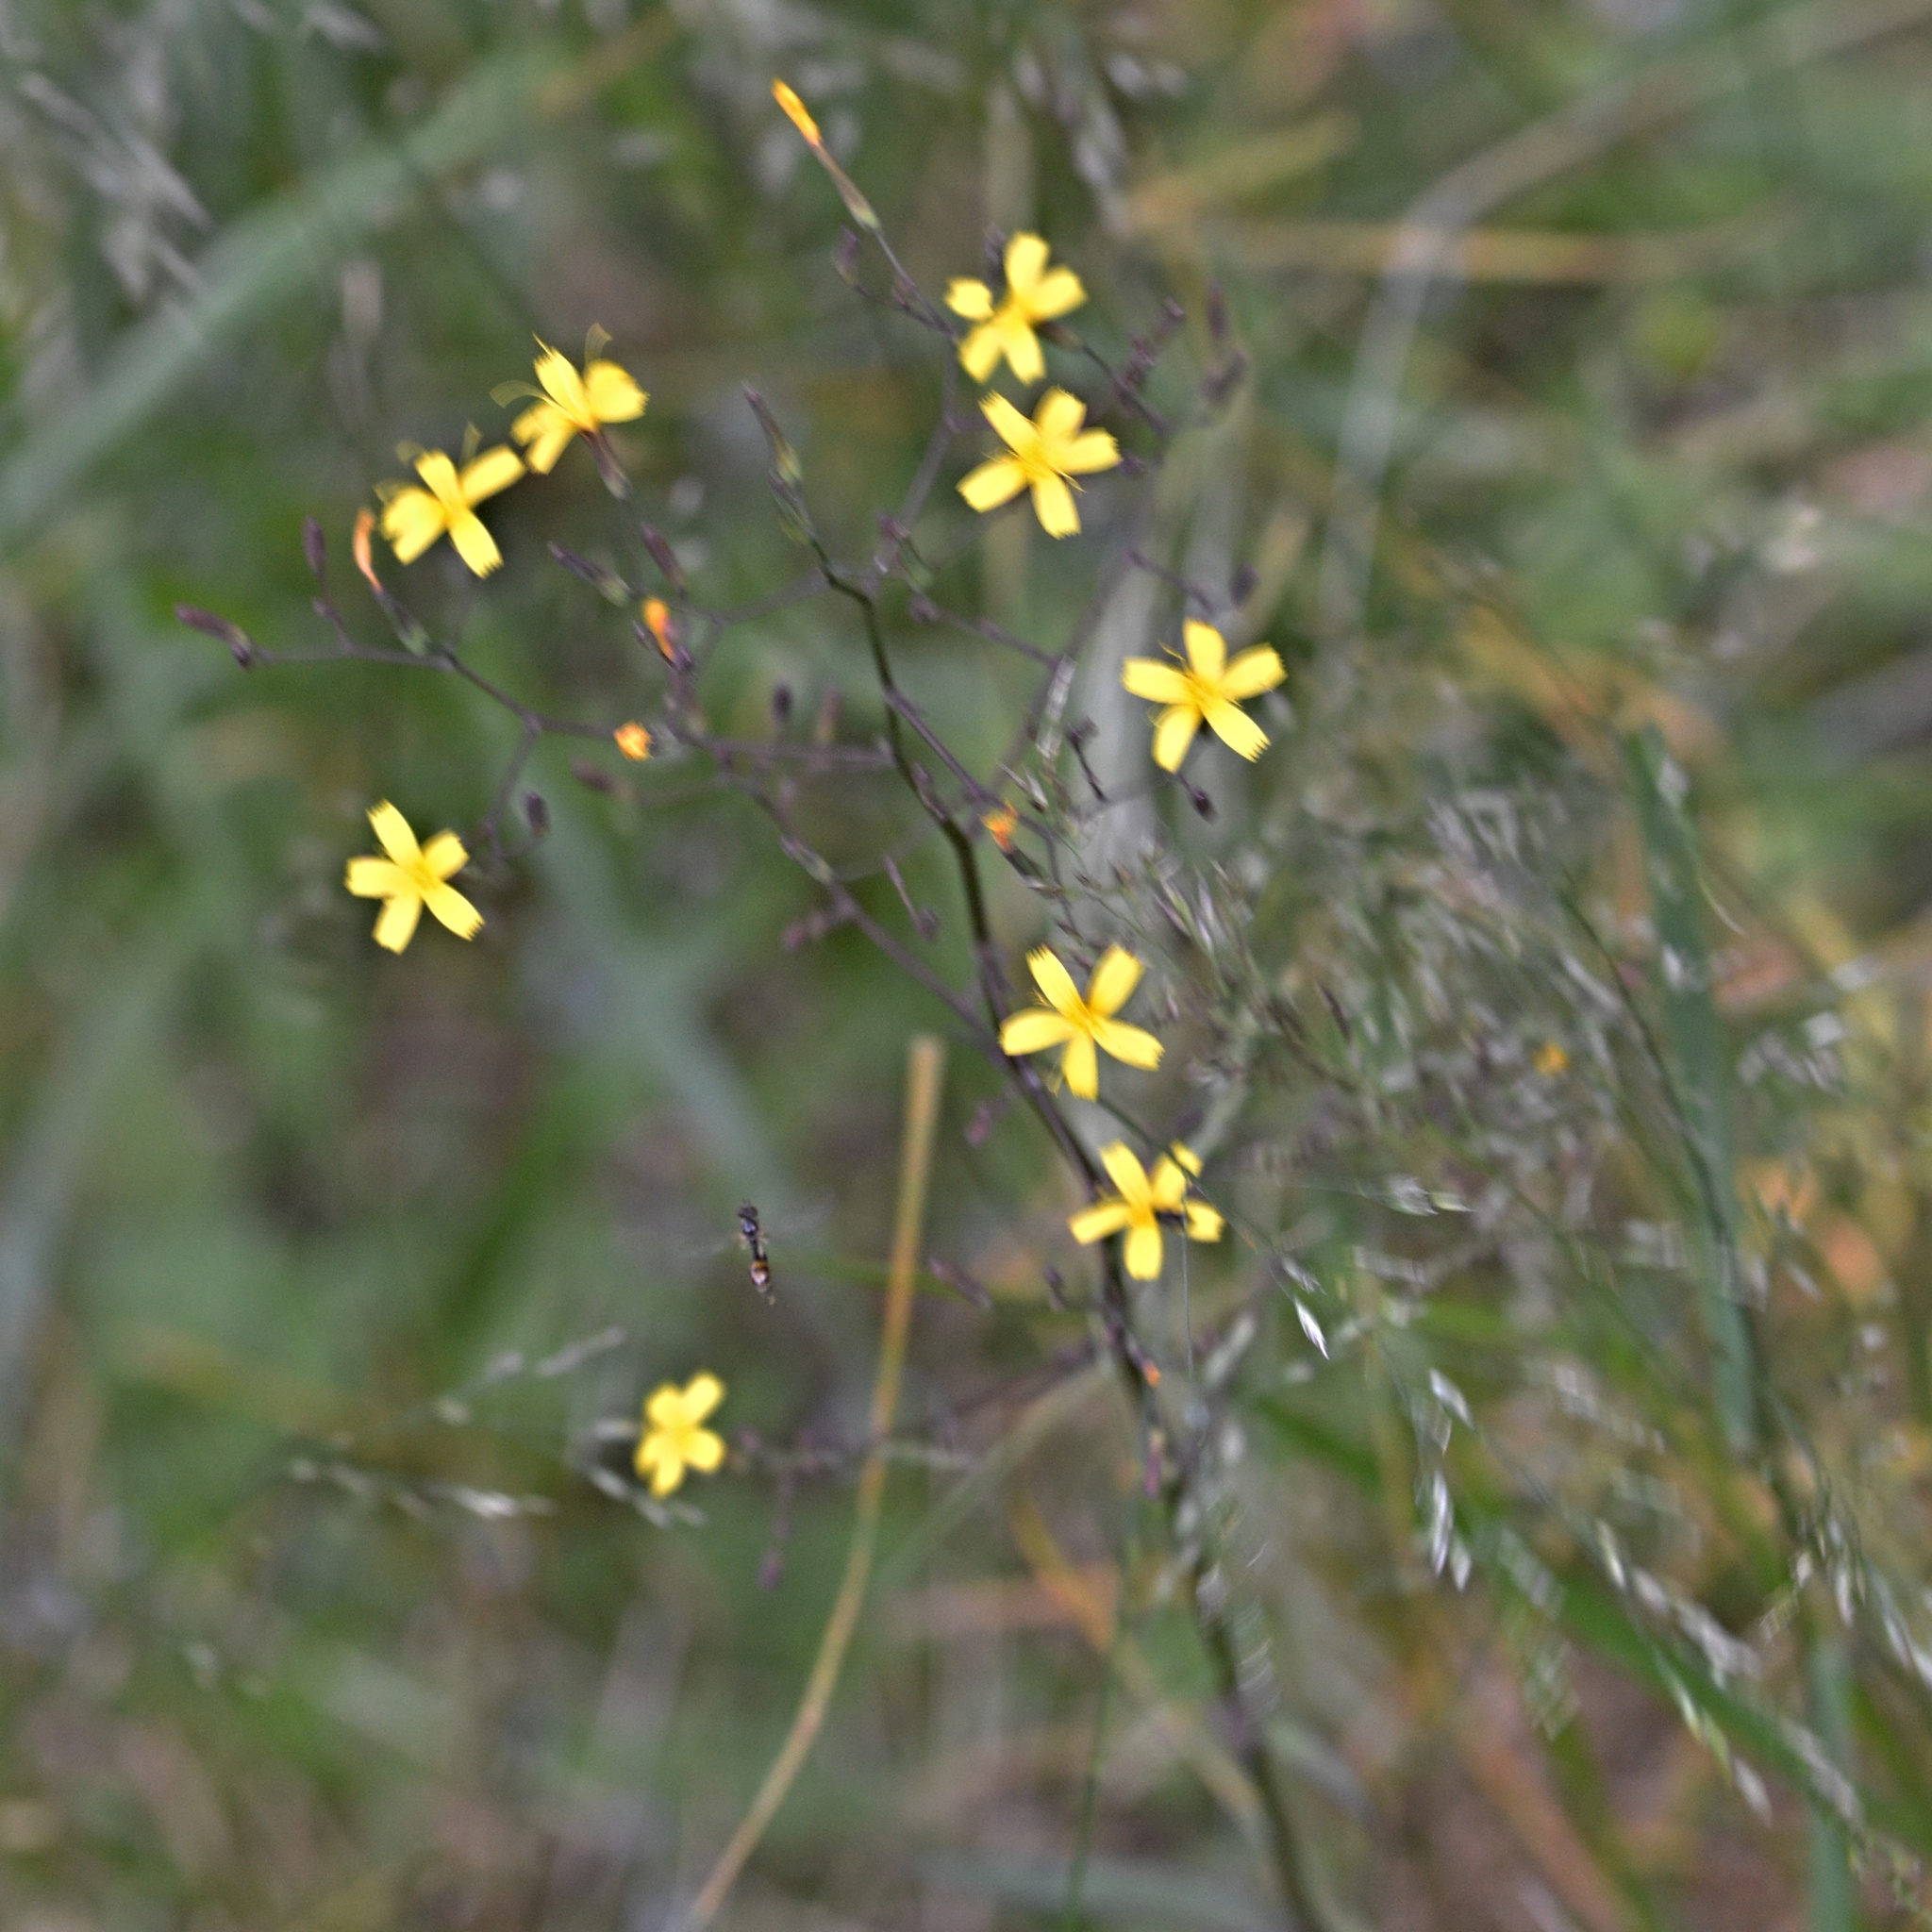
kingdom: Plantae
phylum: Tracheophyta
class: Magnoliopsida
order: Asterales
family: Asteraceae
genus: Mycelis
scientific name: Mycelis muralis
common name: Wall lettuce
